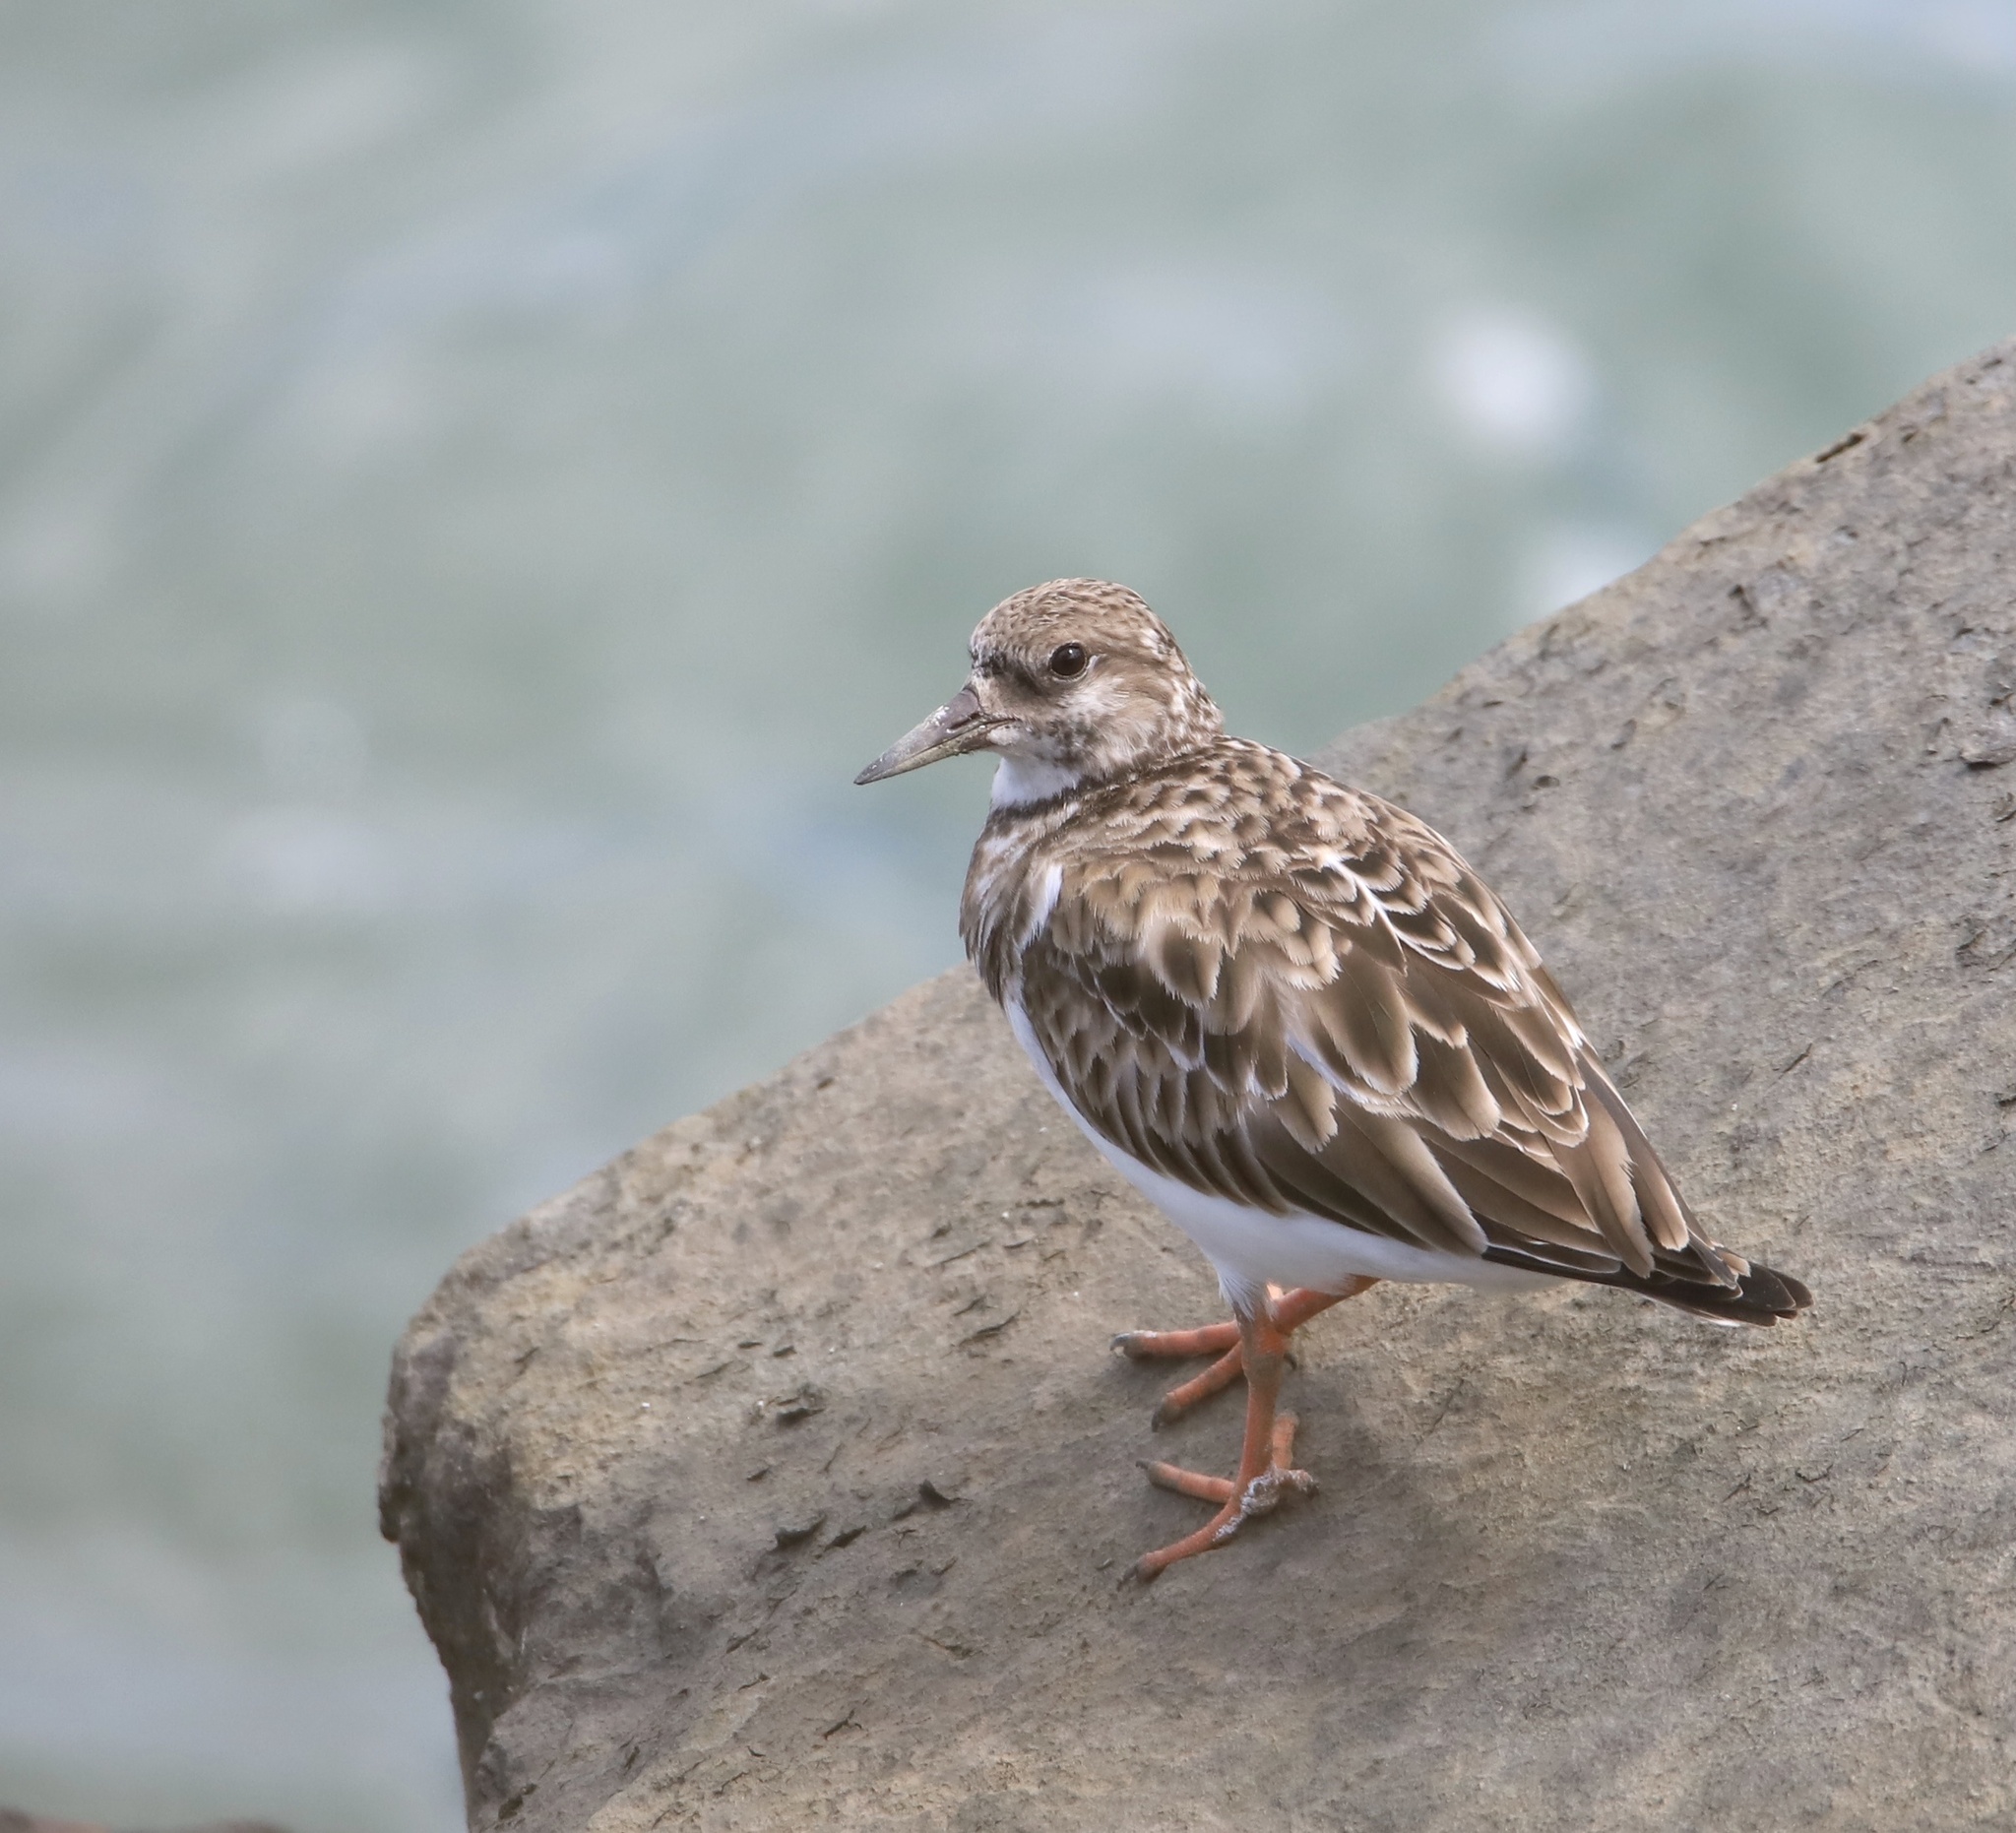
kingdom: Animalia
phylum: Chordata
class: Aves
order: Charadriiformes
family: Scolopacidae
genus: Arenaria
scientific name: Arenaria interpres
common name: Ruddy turnstone
